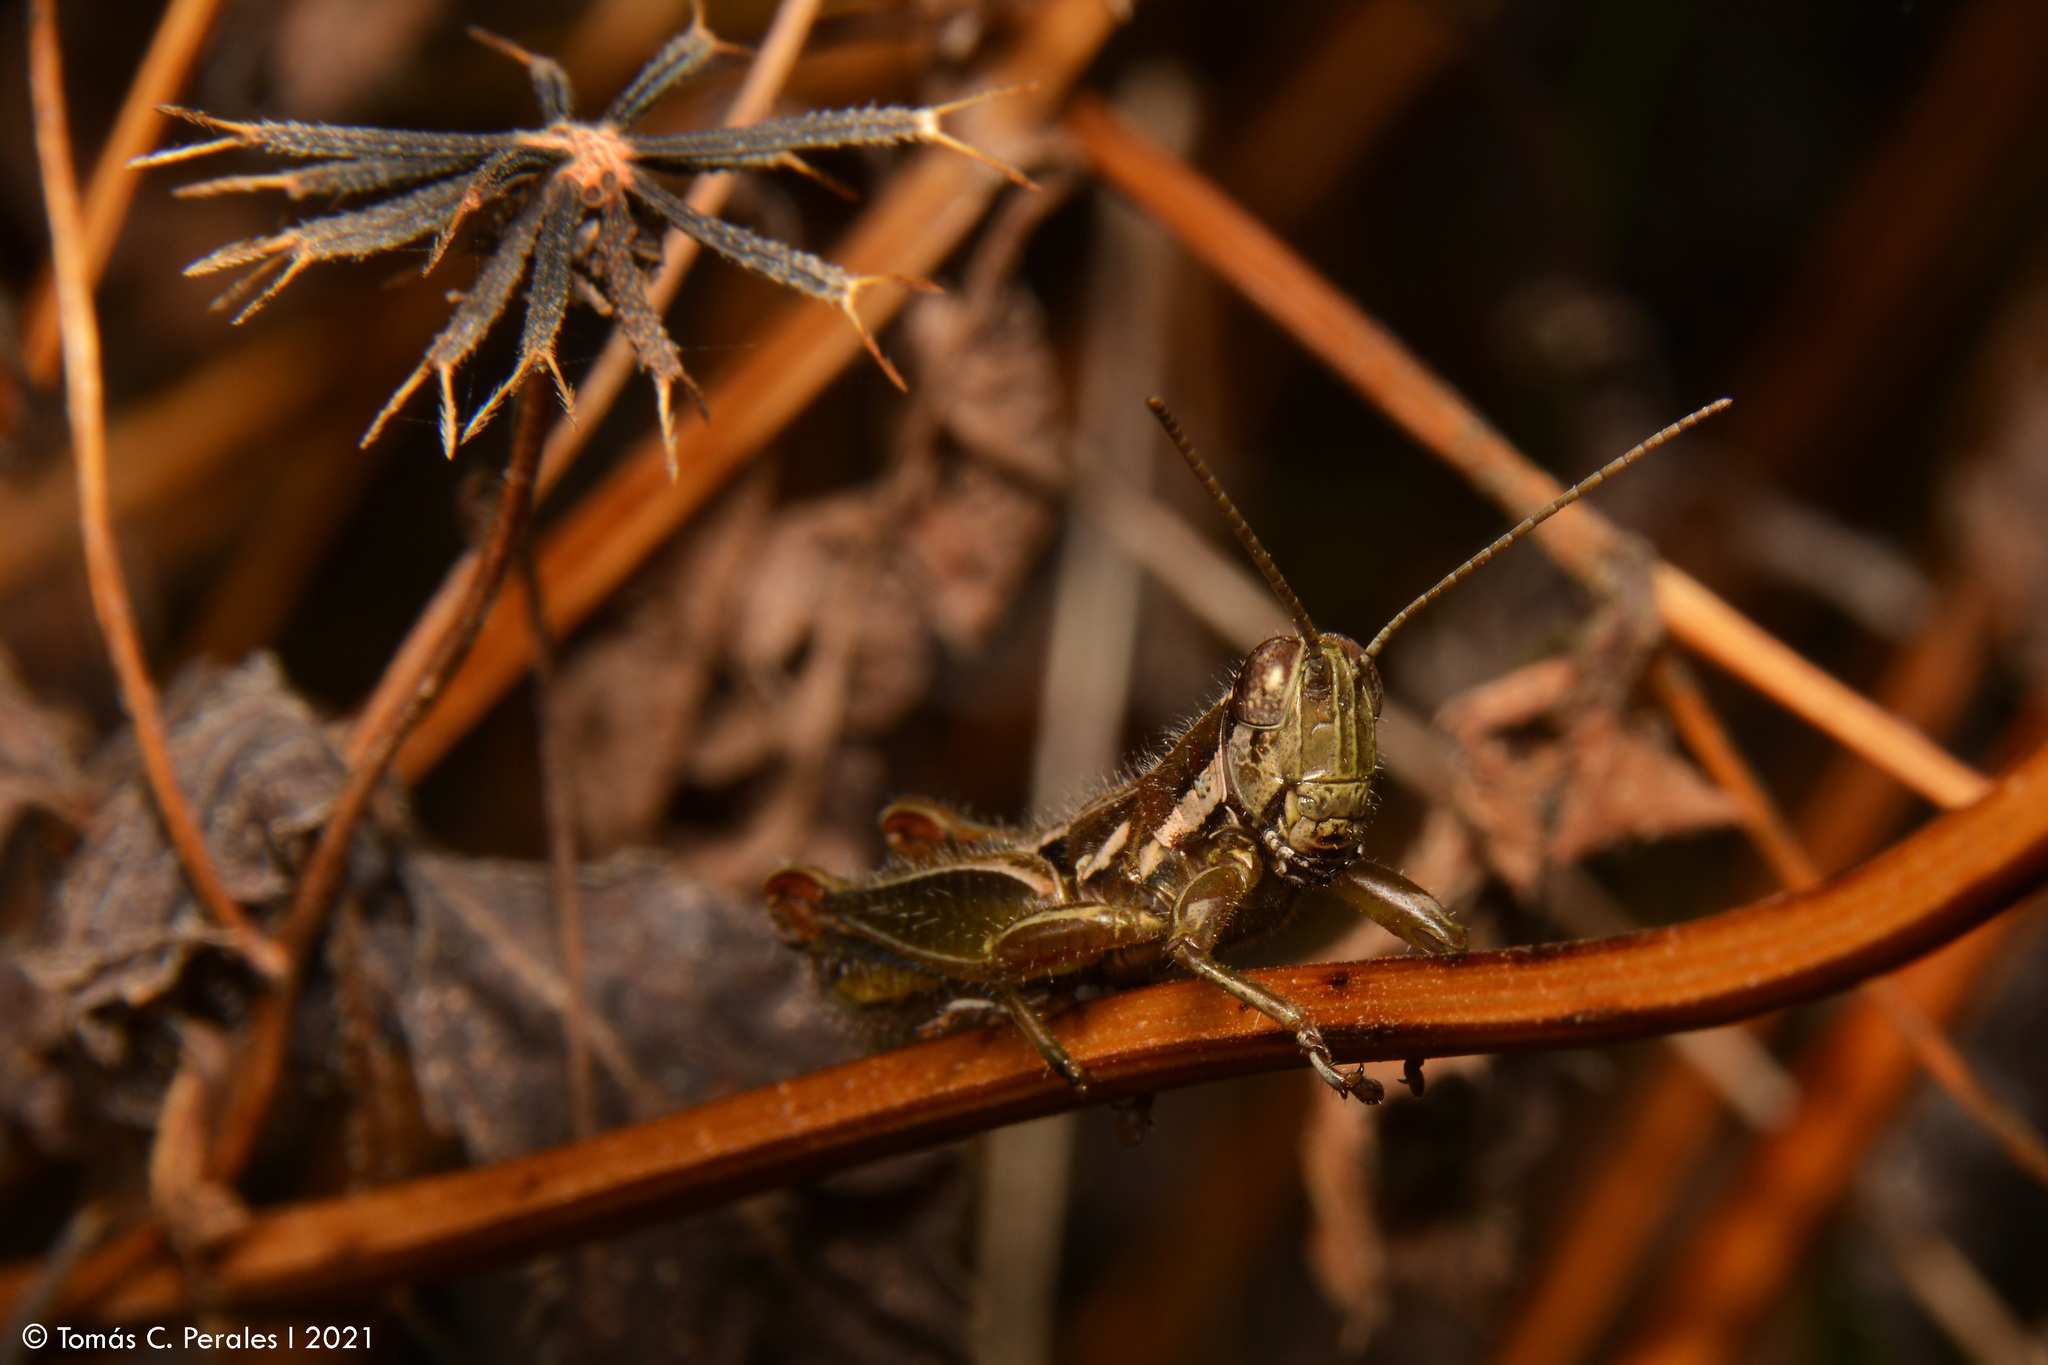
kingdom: Animalia
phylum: Arthropoda
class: Insecta
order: Orthoptera
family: Acrididae
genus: Neopedies
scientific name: Neopedies brunneri
